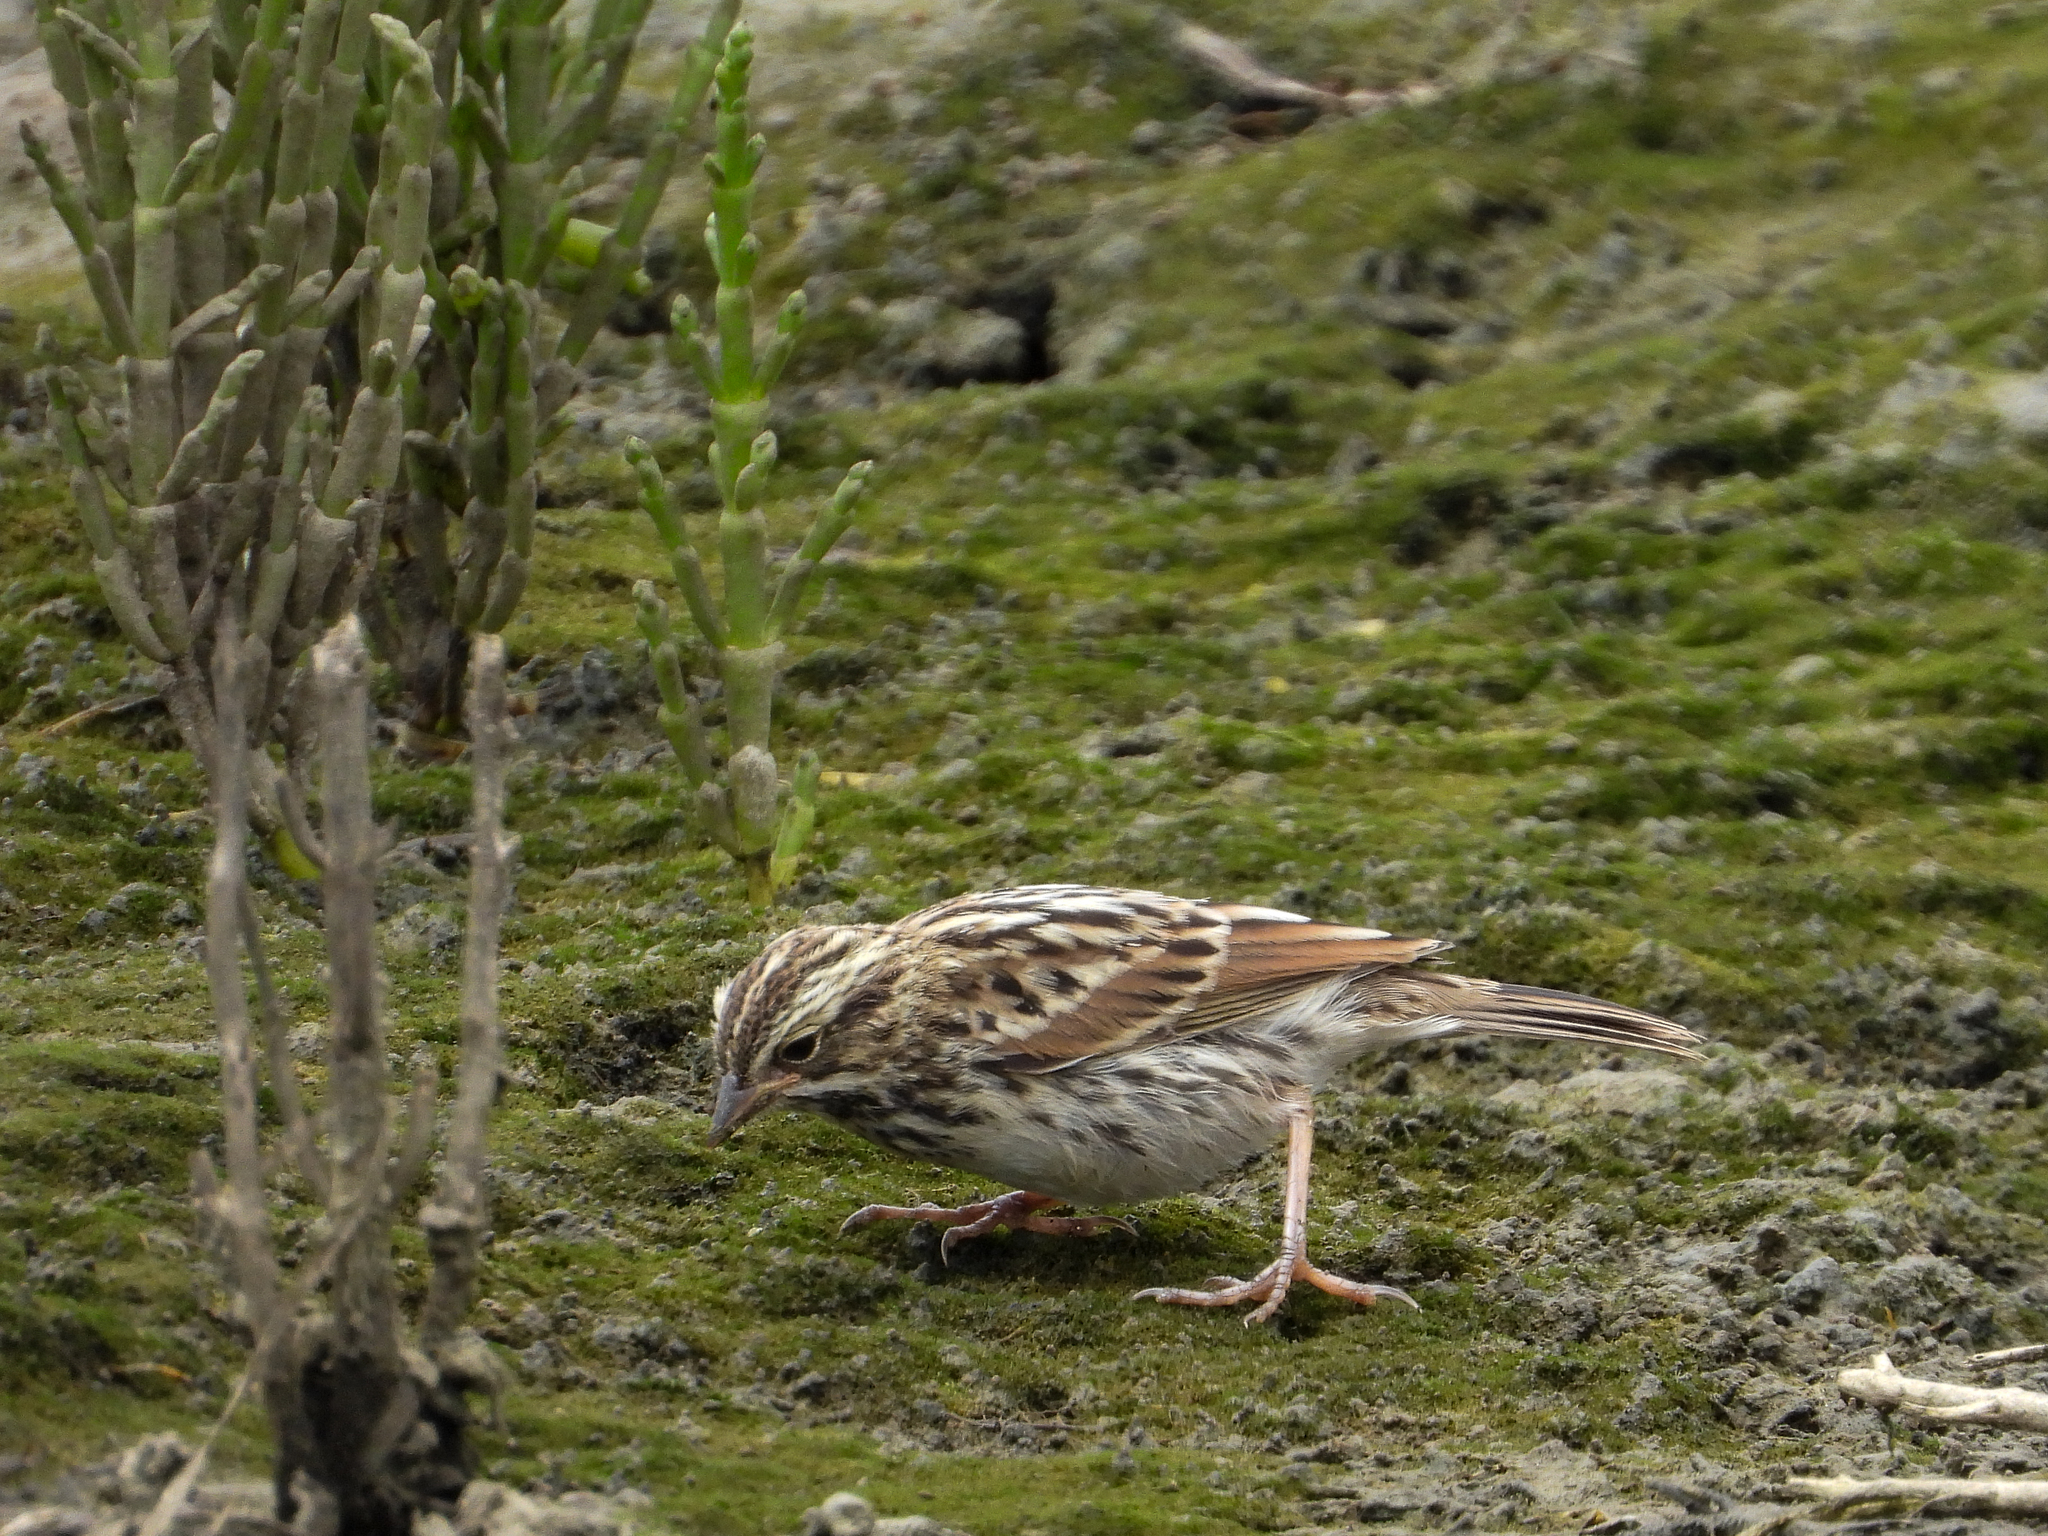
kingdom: Animalia
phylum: Chordata
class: Aves
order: Passeriformes
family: Passerellidae
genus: Passerculus
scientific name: Passerculus sandwichensis
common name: Savannah sparrow
